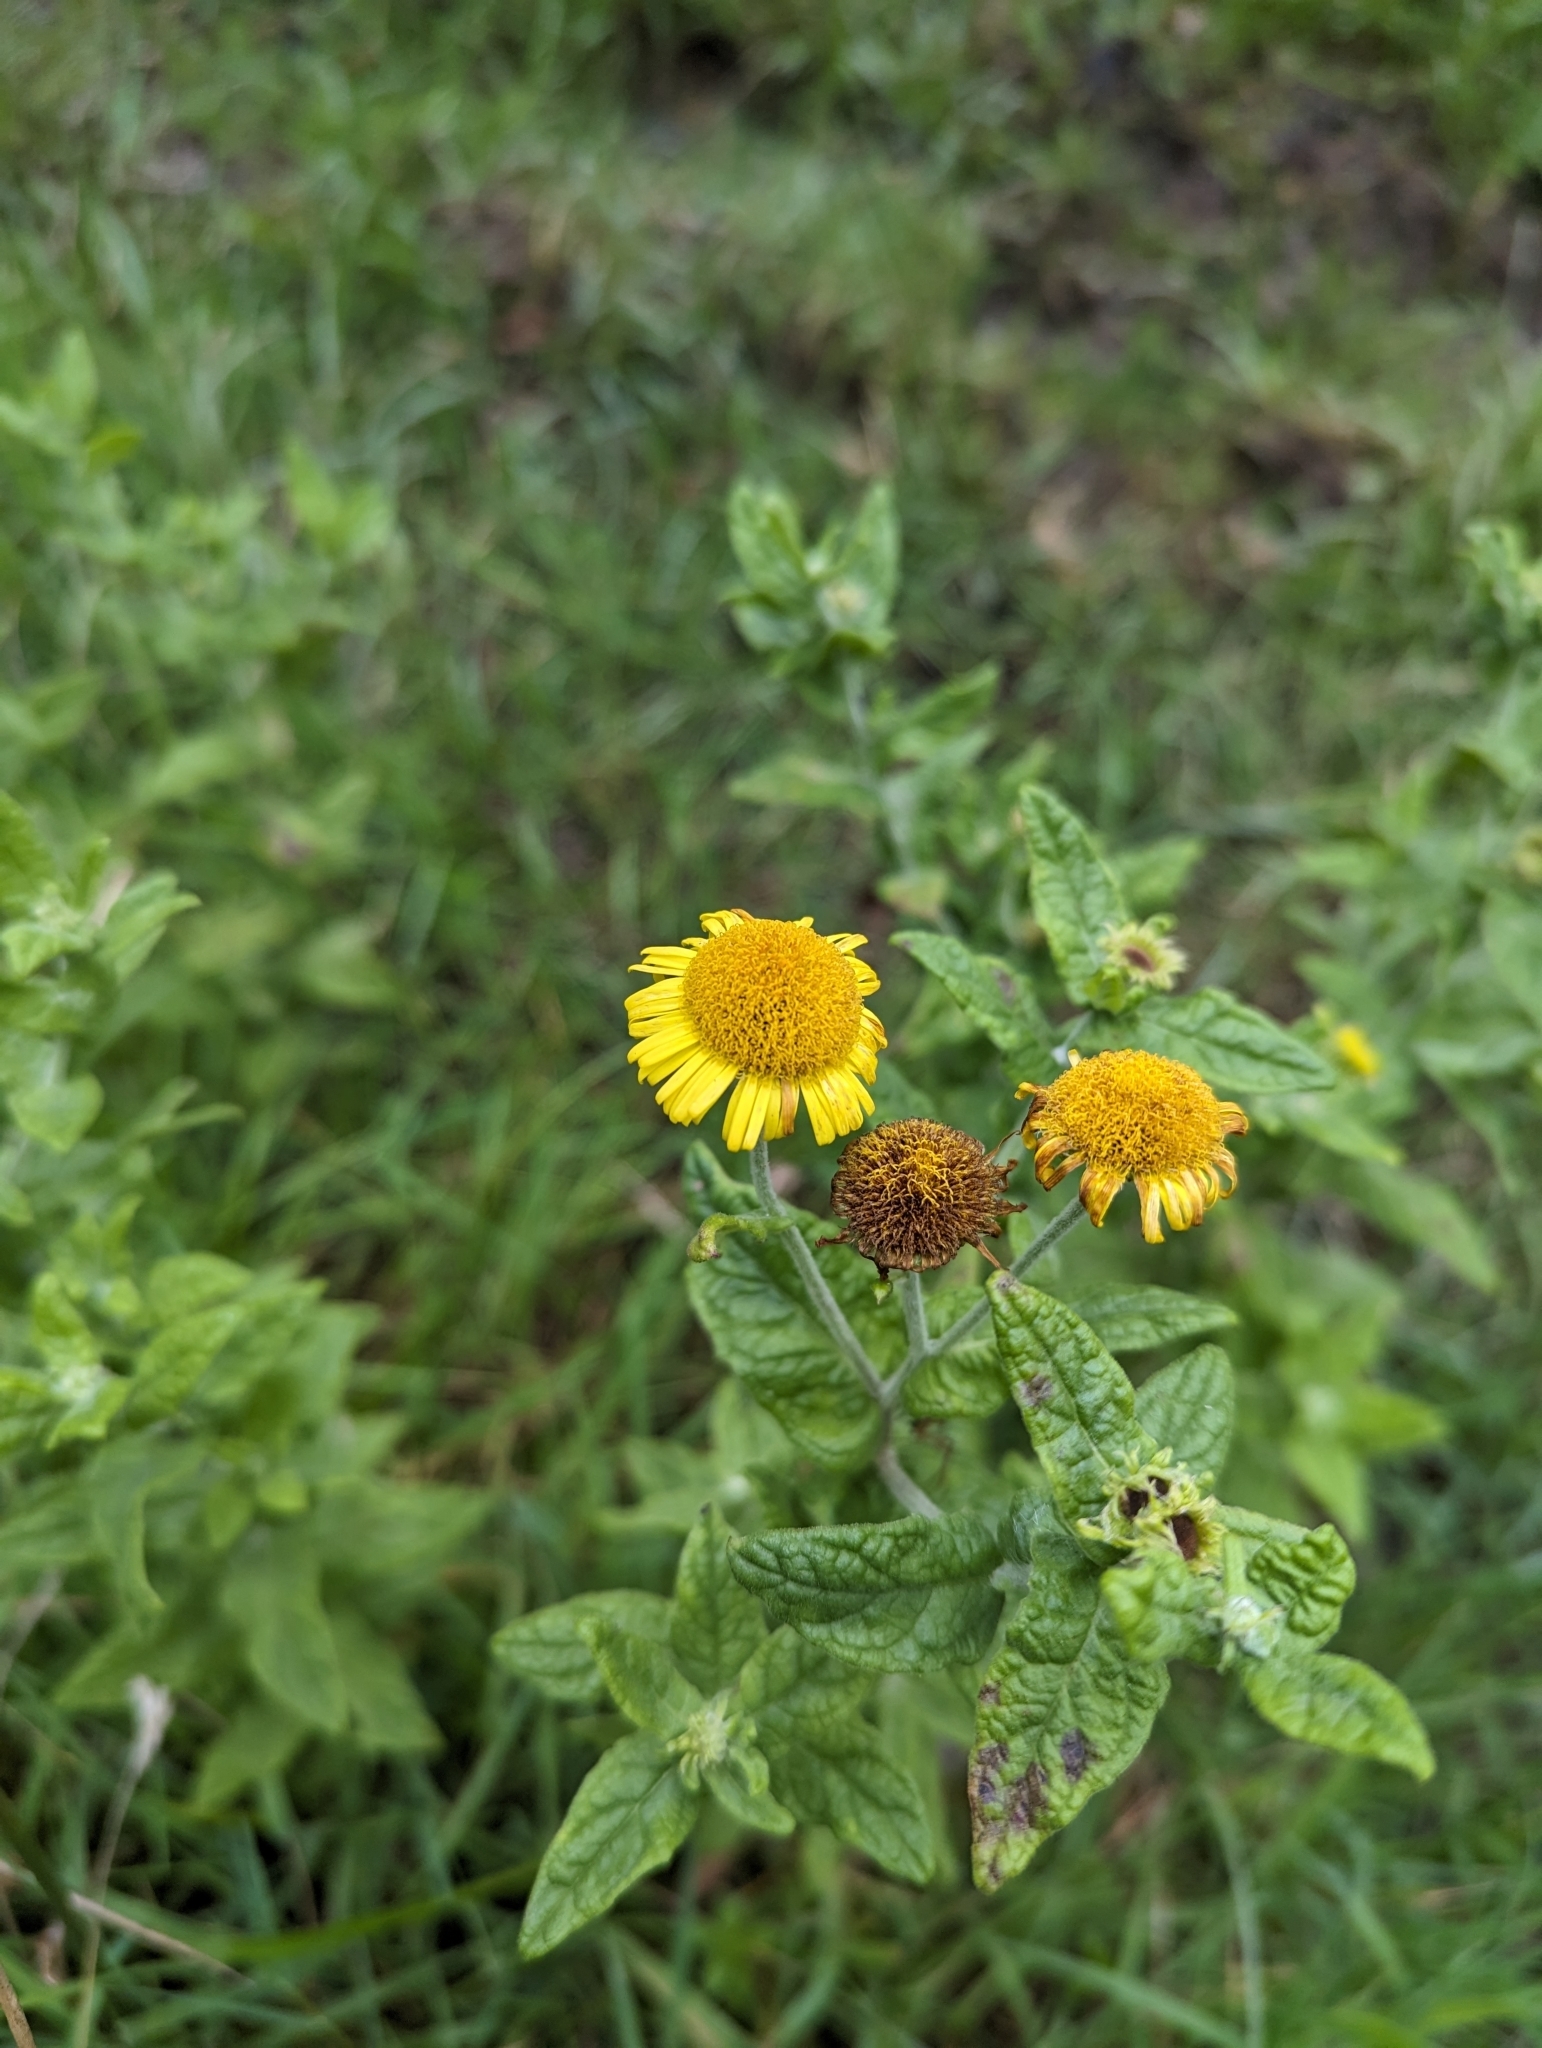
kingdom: Plantae
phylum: Tracheophyta
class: Magnoliopsida
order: Asterales
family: Asteraceae
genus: Pulicaria
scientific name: Pulicaria dysenterica
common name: Common fleabane
